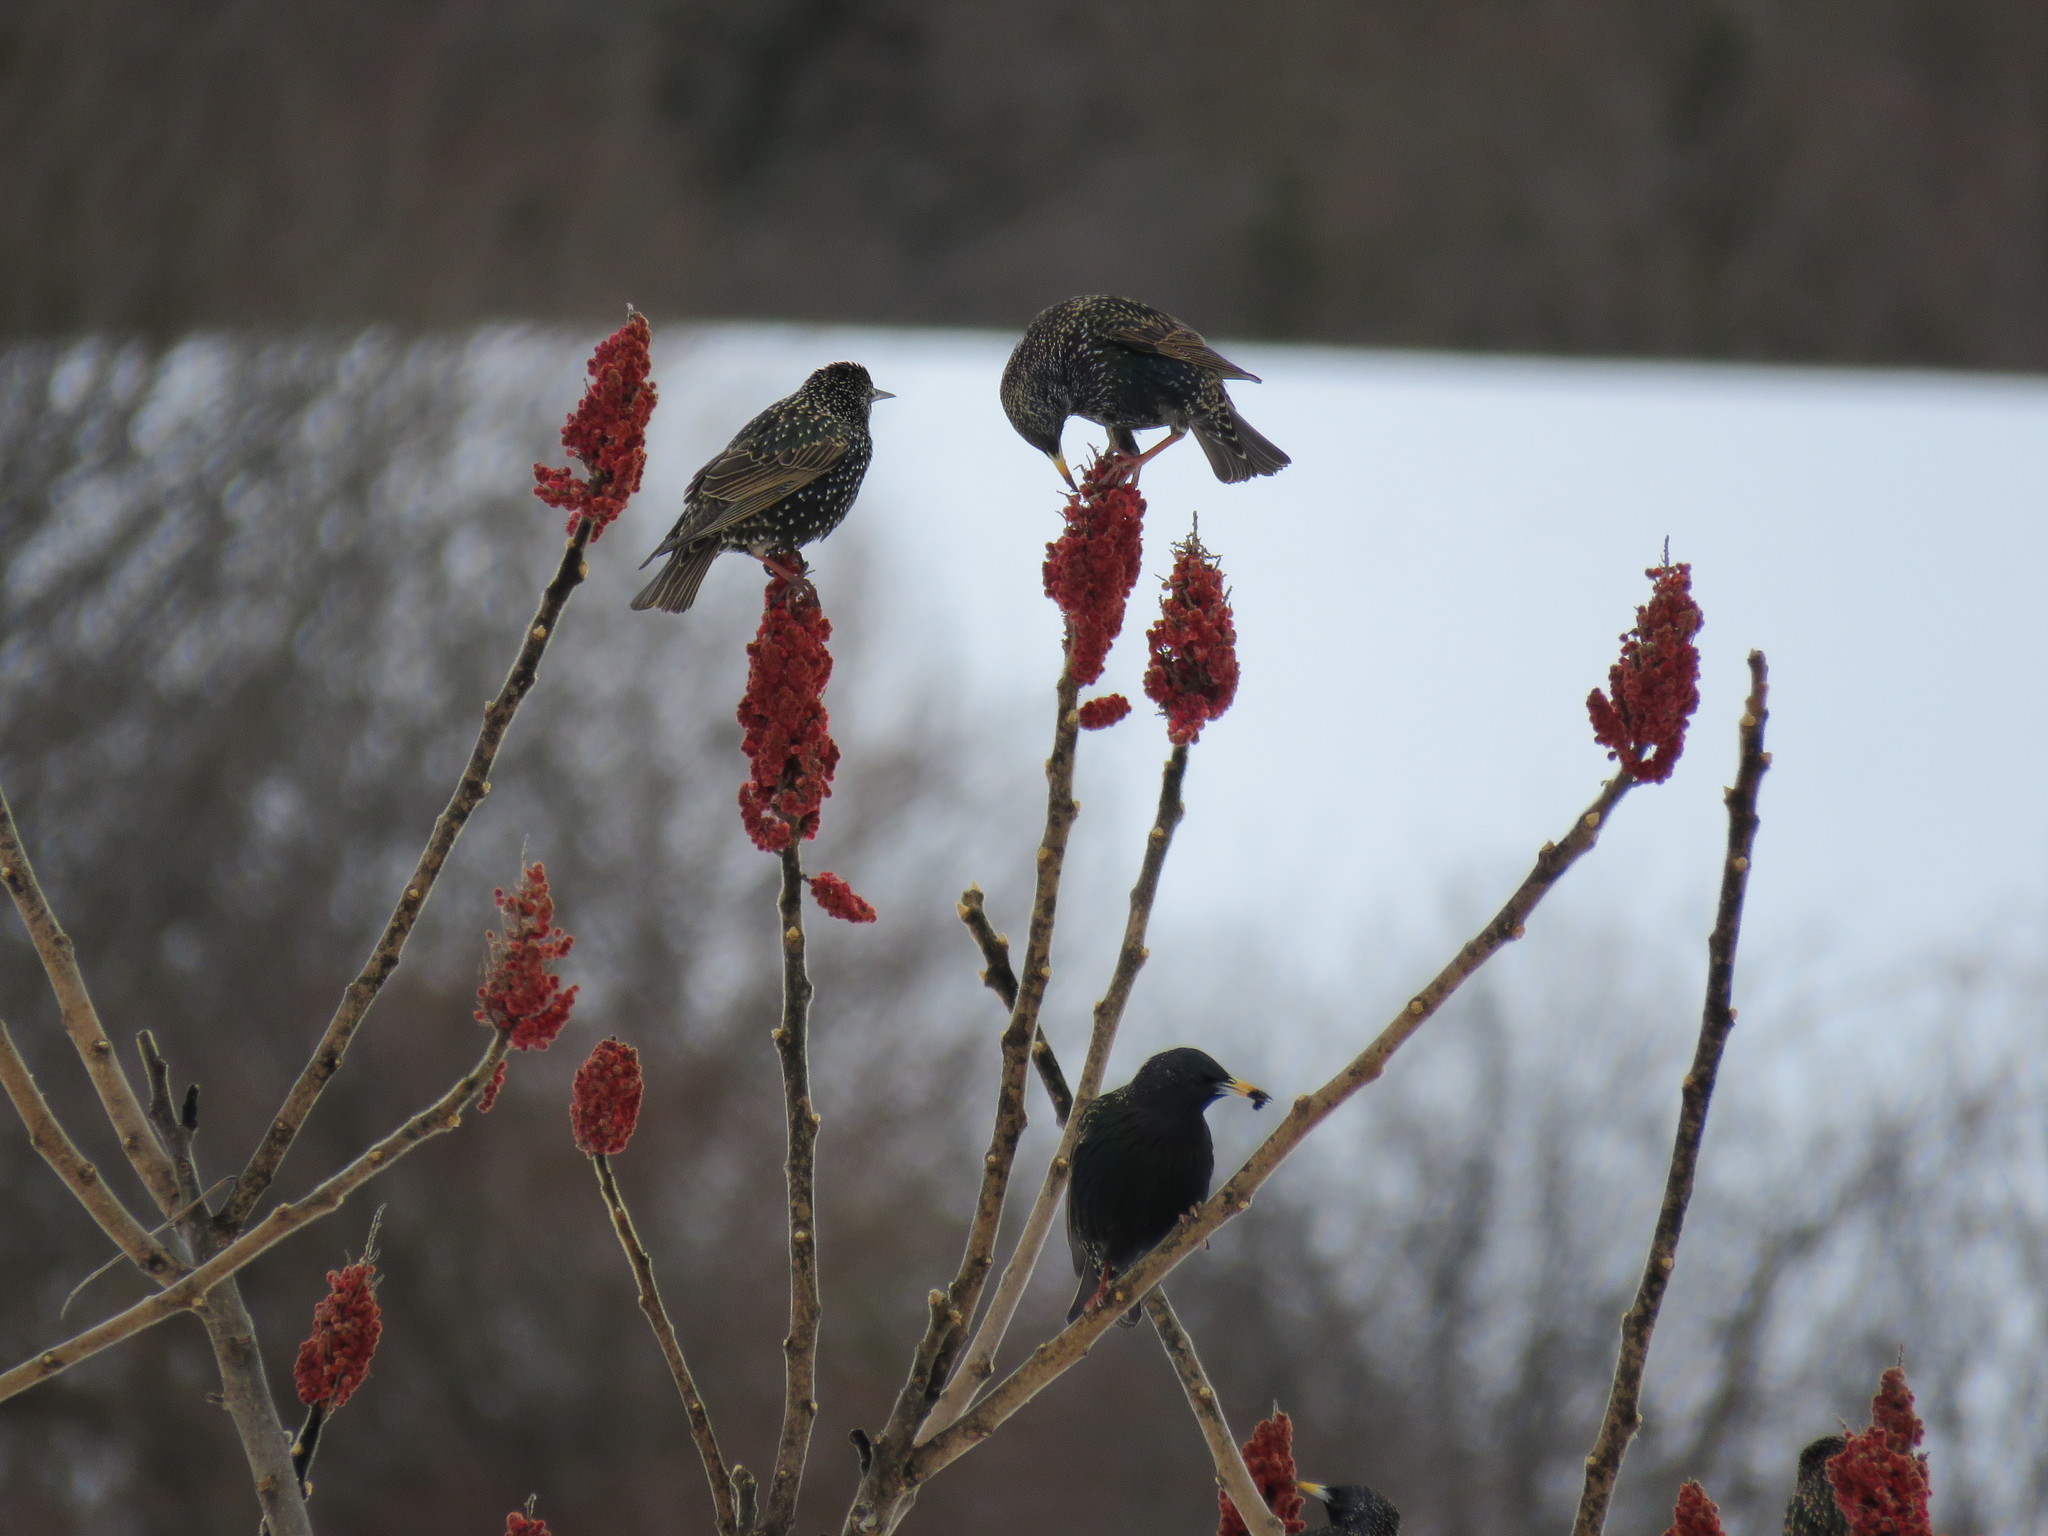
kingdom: Animalia
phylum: Chordata
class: Aves
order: Passeriformes
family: Sturnidae
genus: Sturnus
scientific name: Sturnus vulgaris
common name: Common starling
